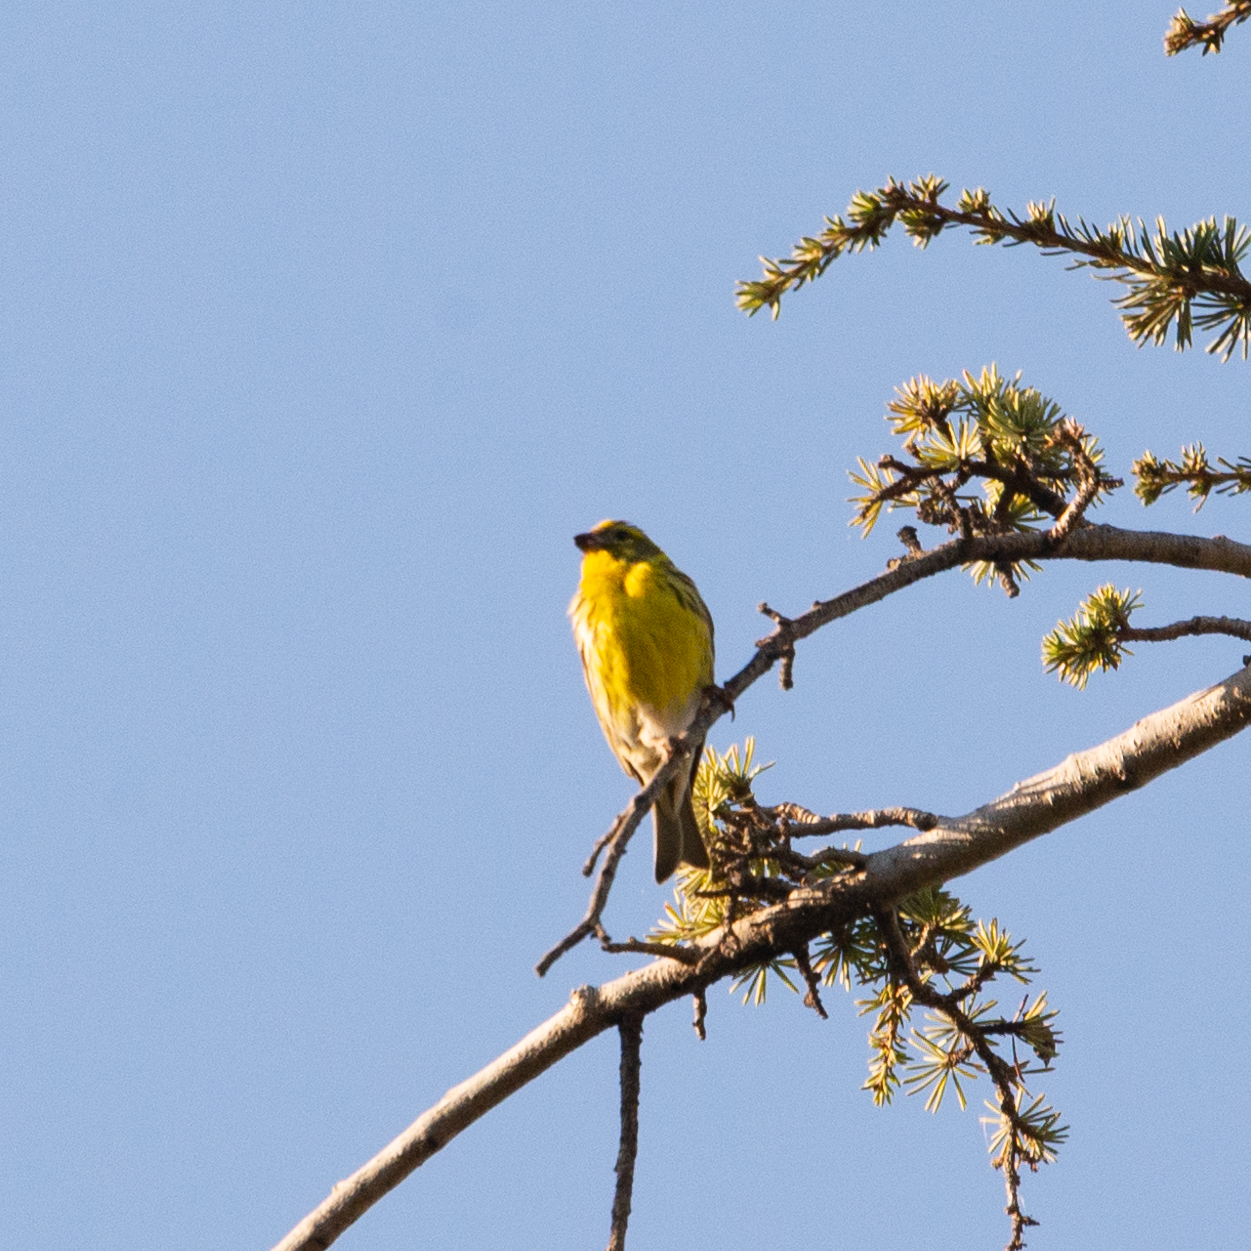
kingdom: Animalia
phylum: Chordata
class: Aves
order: Passeriformes
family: Fringillidae
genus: Serinus
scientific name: Serinus serinus
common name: European serin
